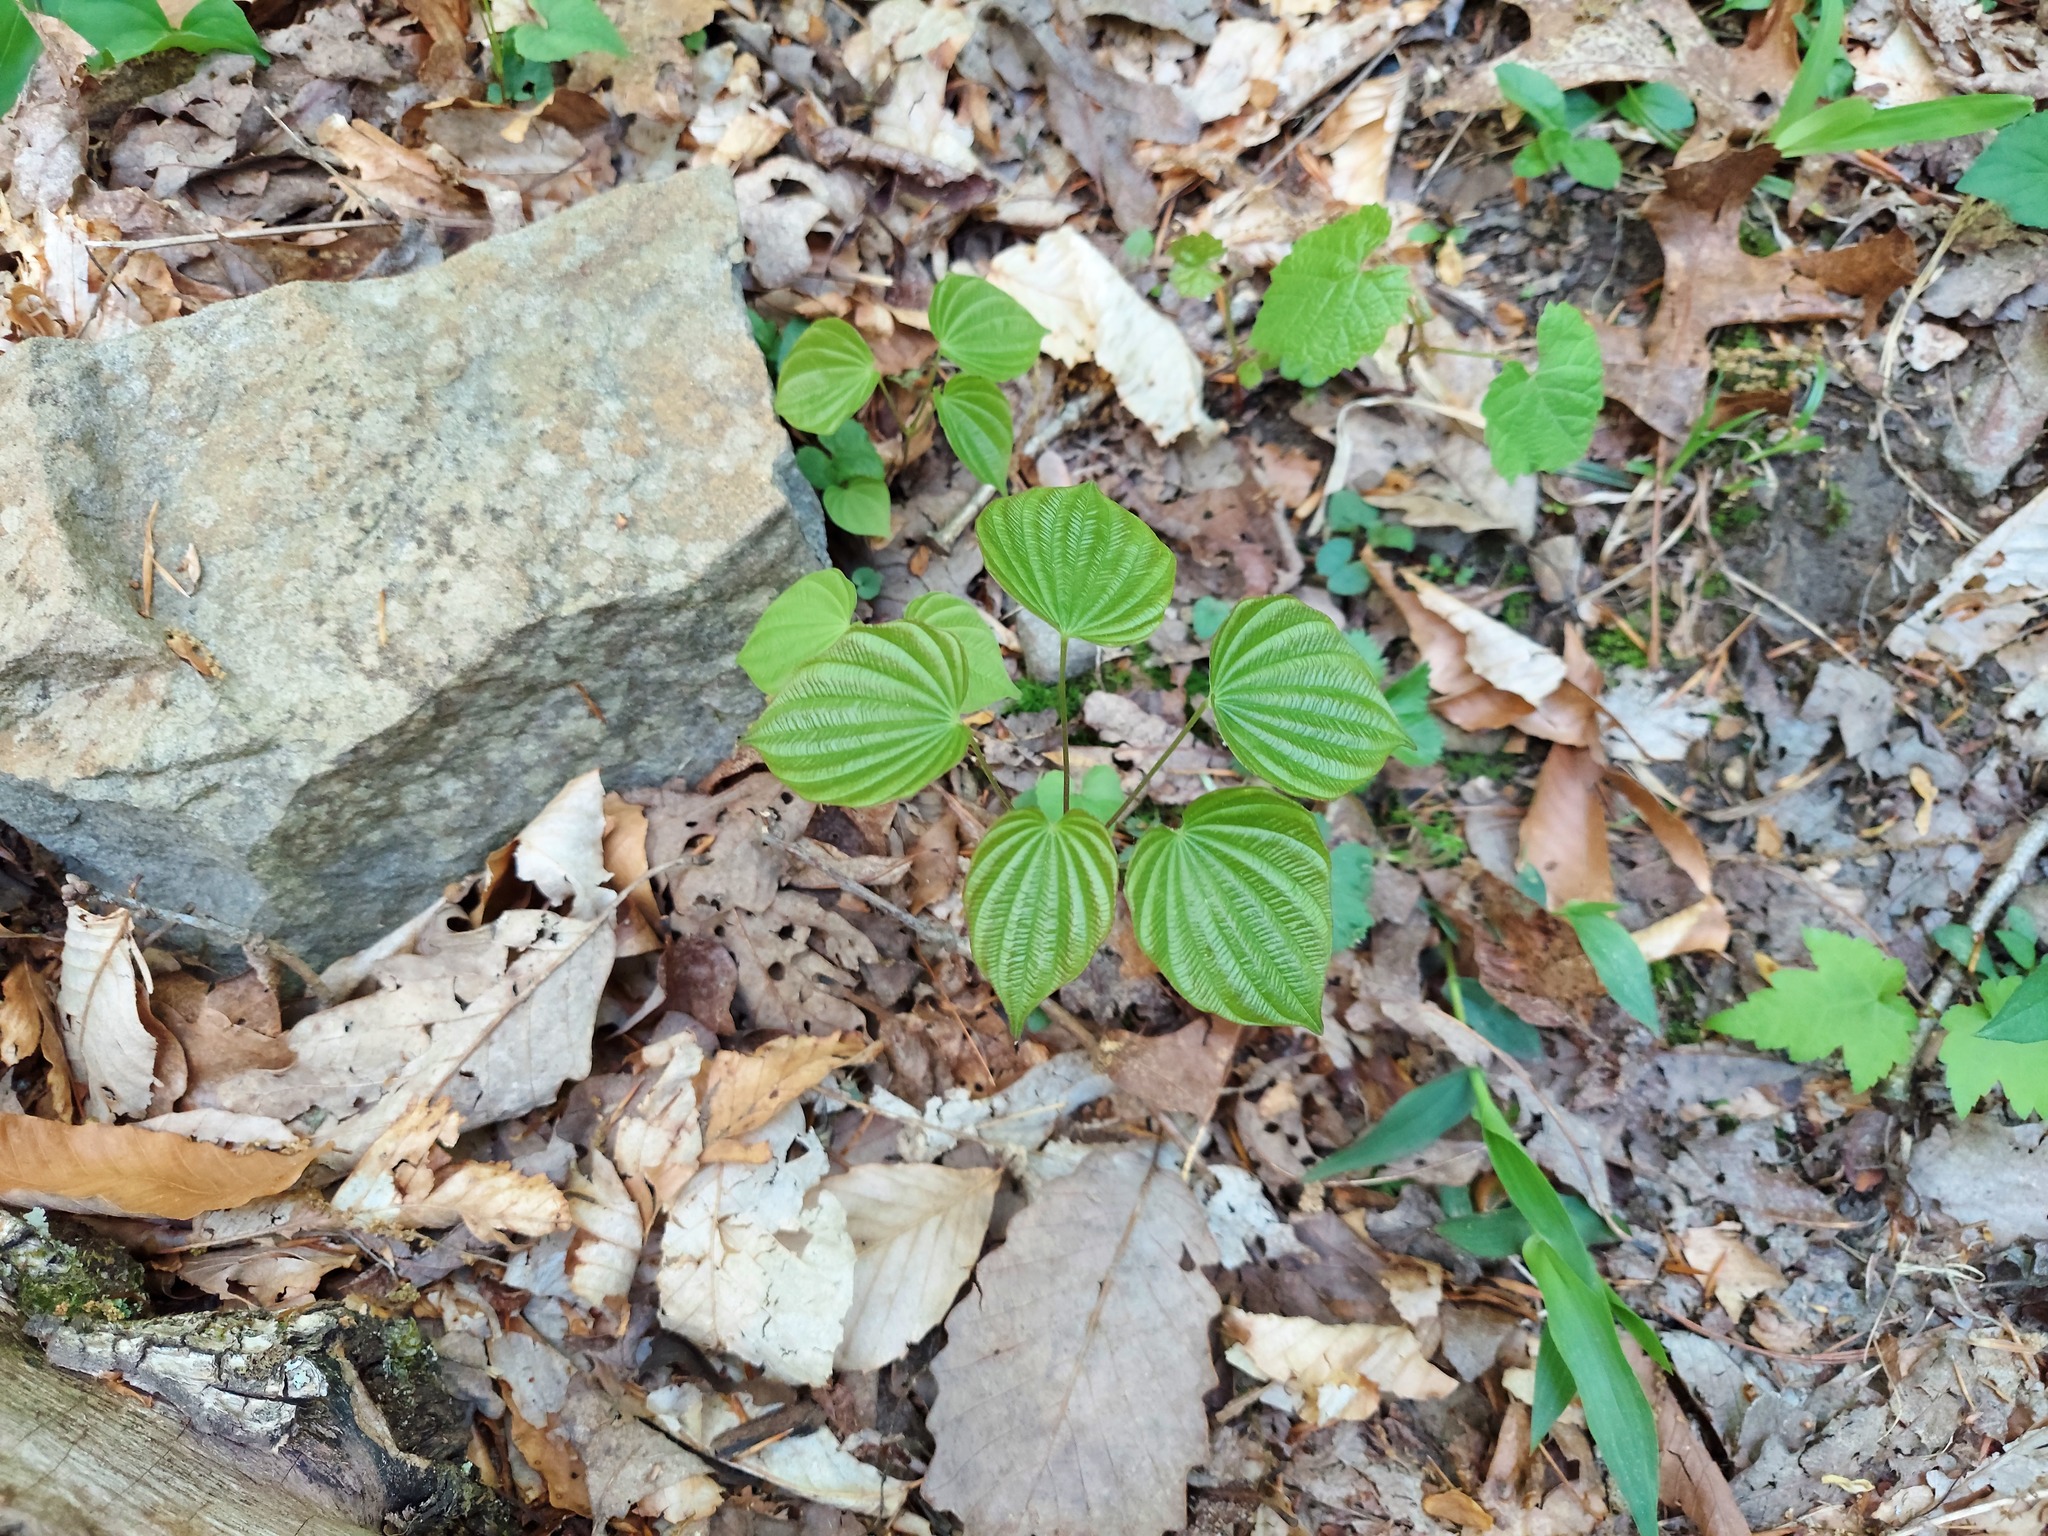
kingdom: Plantae
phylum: Tracheophyta
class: Liliopsida
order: Dioscoreales
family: Dioscoreaceae
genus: Dioscorea
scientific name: Dioscorea villosa
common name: Wild yam
